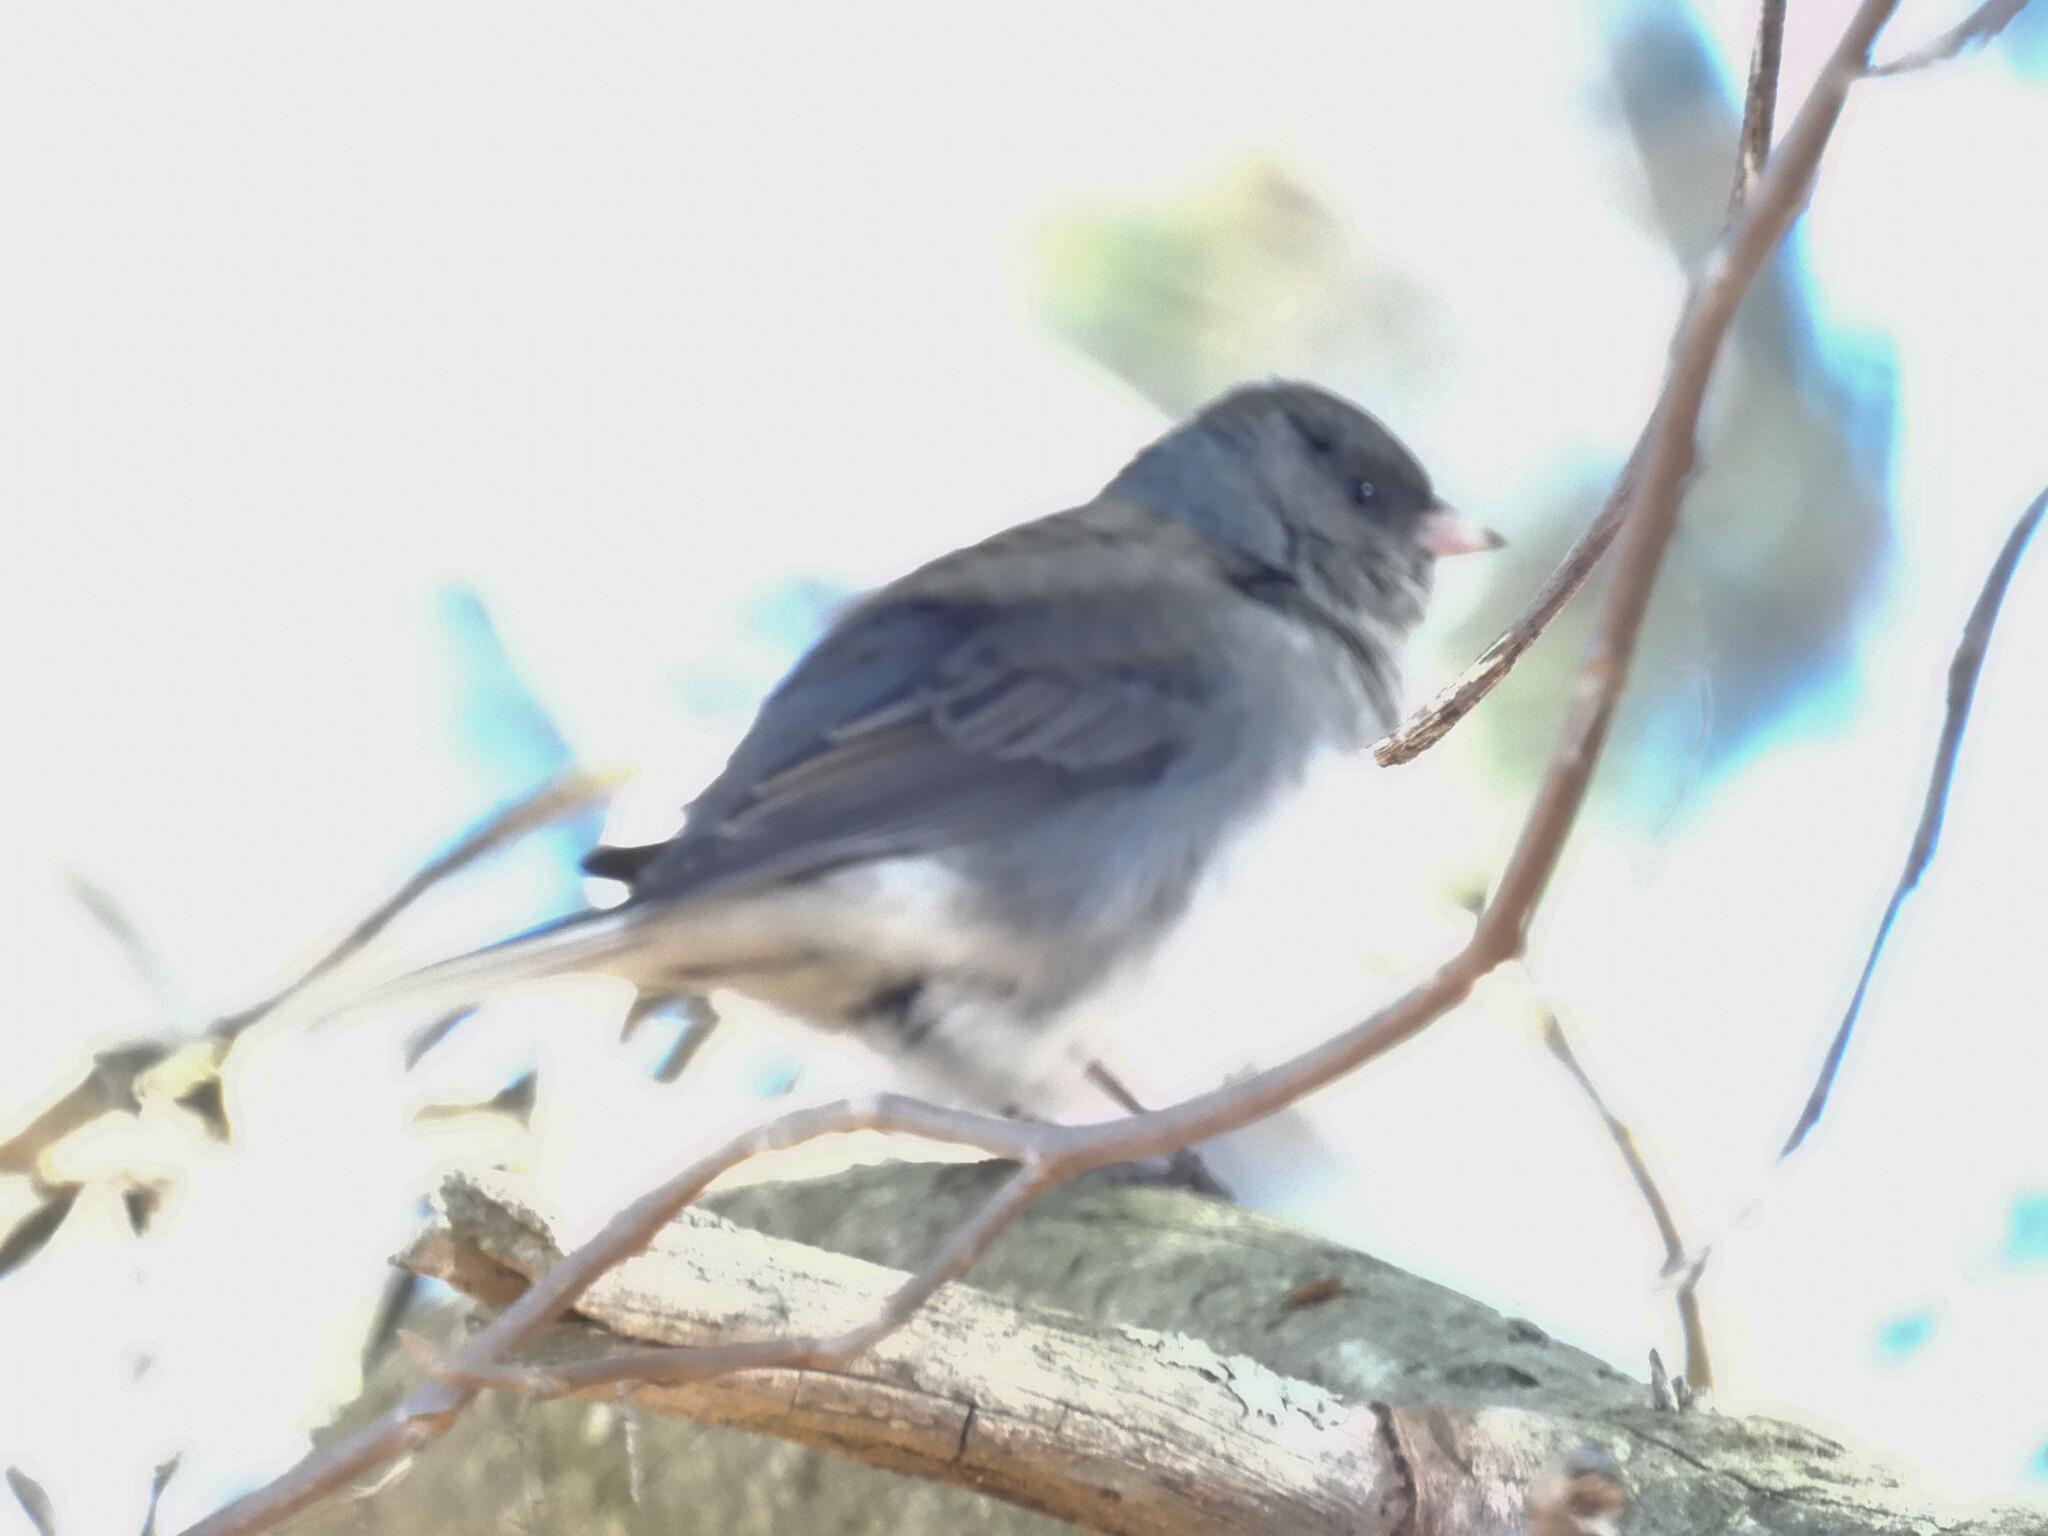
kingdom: Animalia
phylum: Chordata
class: Aves
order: Passeriformes
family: Passerellidae
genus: Junco
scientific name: Junco hyemalis
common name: Dark-eyed junco
